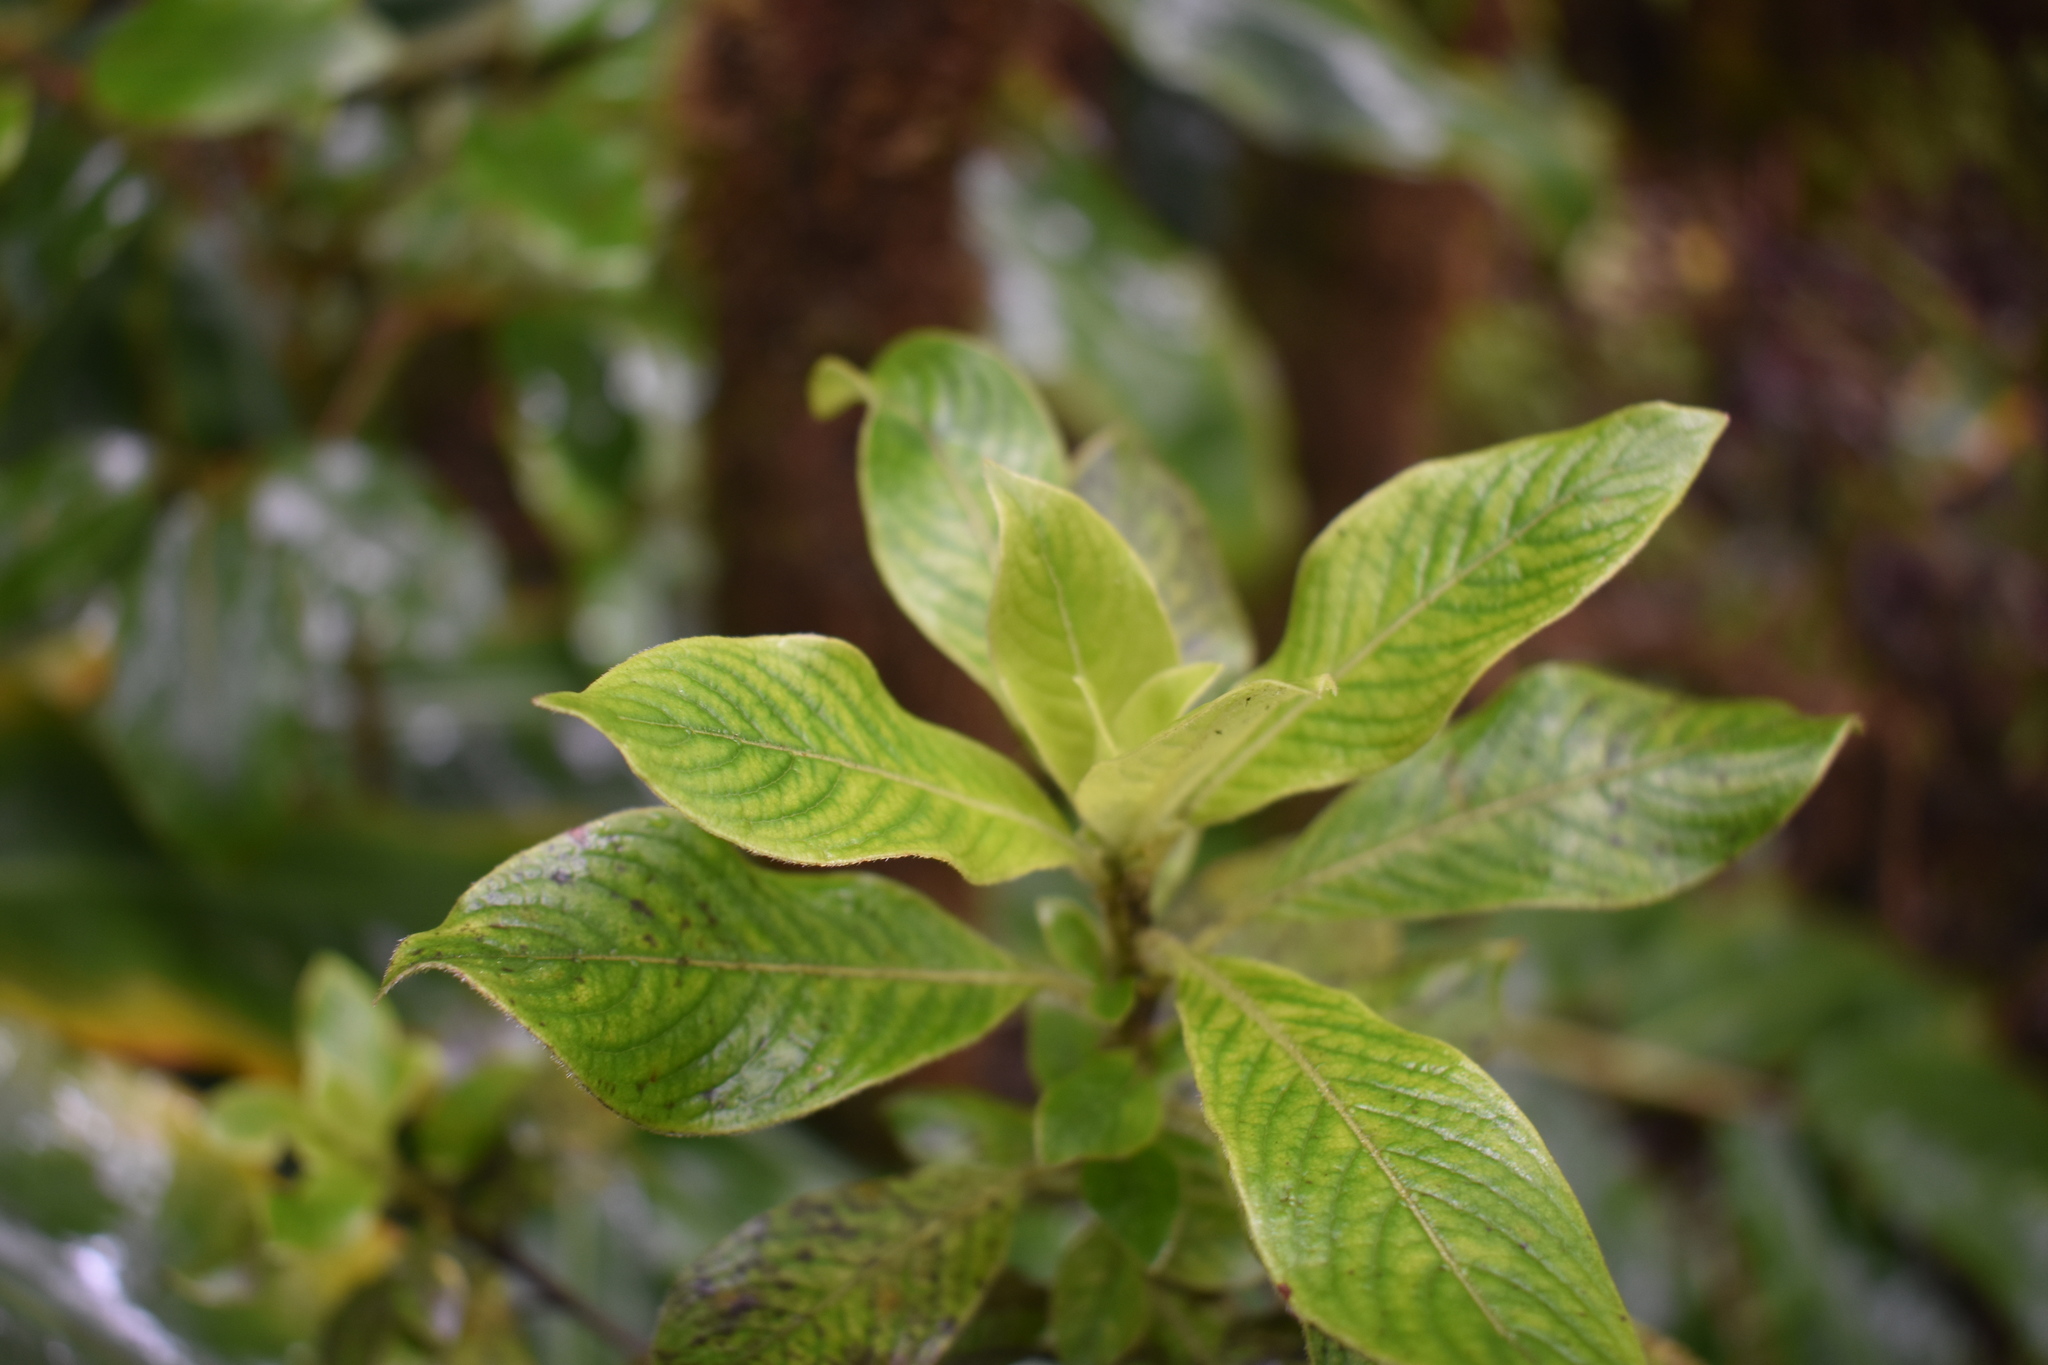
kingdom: Plantae
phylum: Tracheophyta
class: Magnoliopsida
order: Gentianales
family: Rubiaceae
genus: Coprosma
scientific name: Coprosma kauensis
